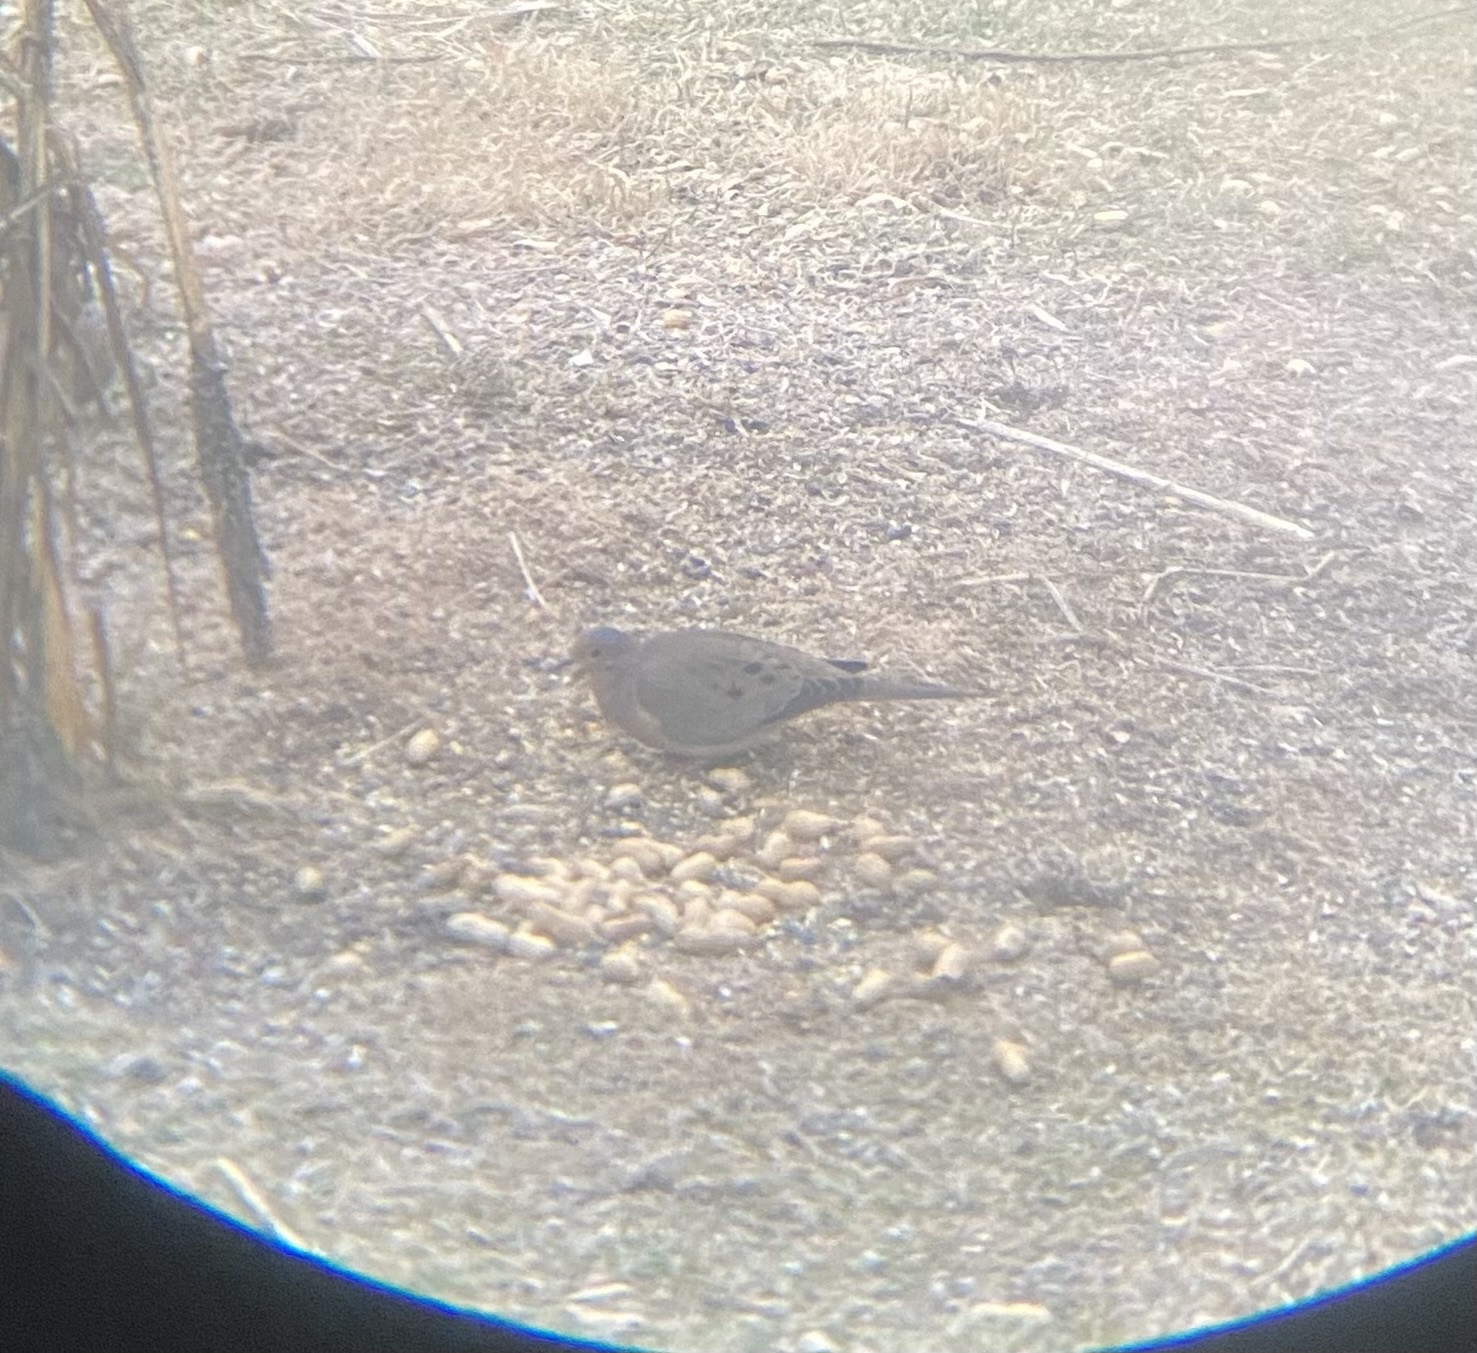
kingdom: Animalia
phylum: Chordata
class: Aves
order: Columbiformes
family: Columbidae
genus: Zenaida
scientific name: Zenaida macroura
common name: Mourning dove
